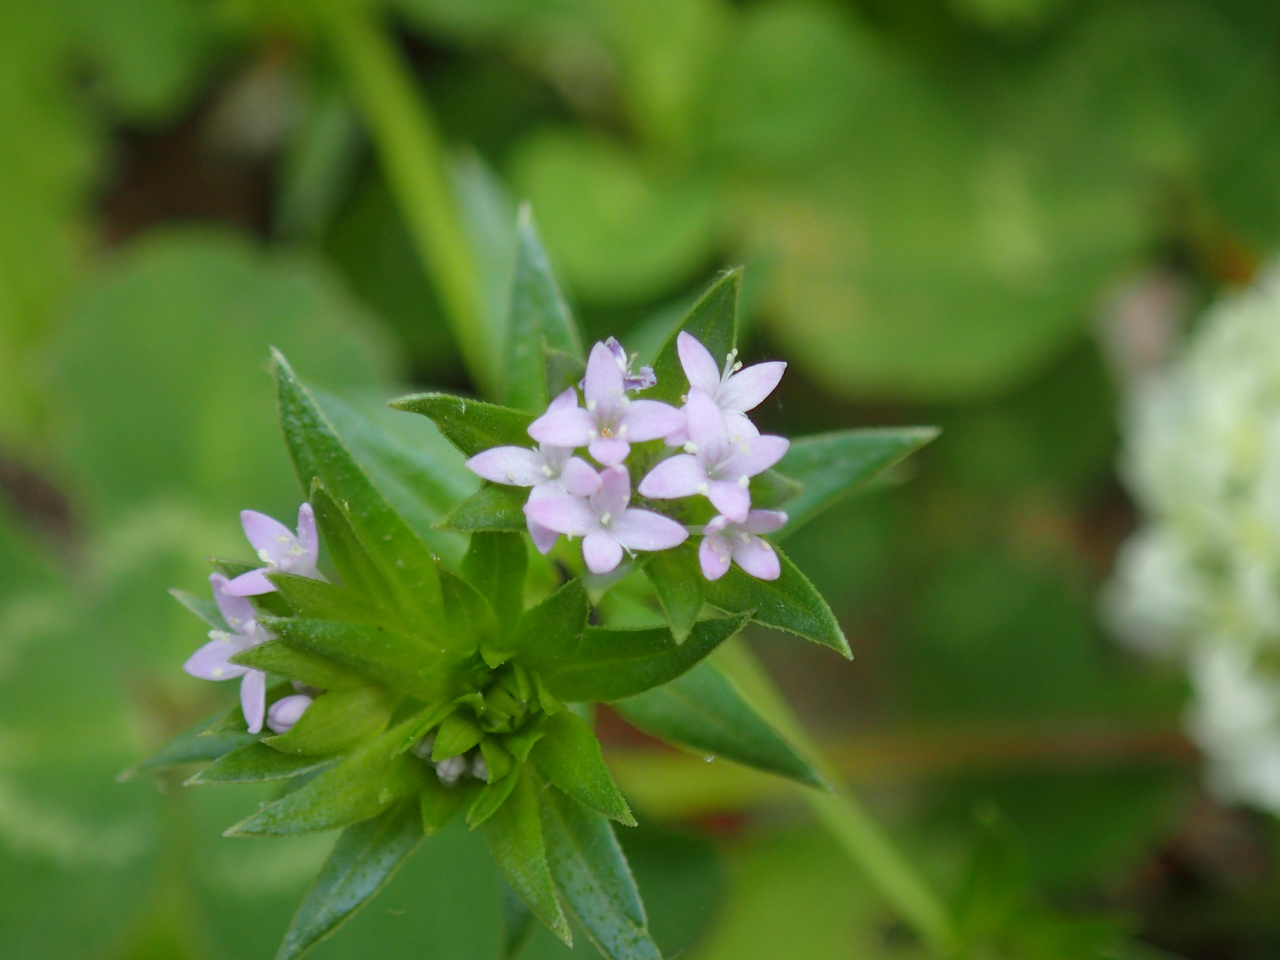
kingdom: Plantae
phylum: Tracheophyta
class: Magnoliopsida
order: Gentianales
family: Rubiaceae
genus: Sherardia
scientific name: Sherardia arvensis
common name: Field madder
